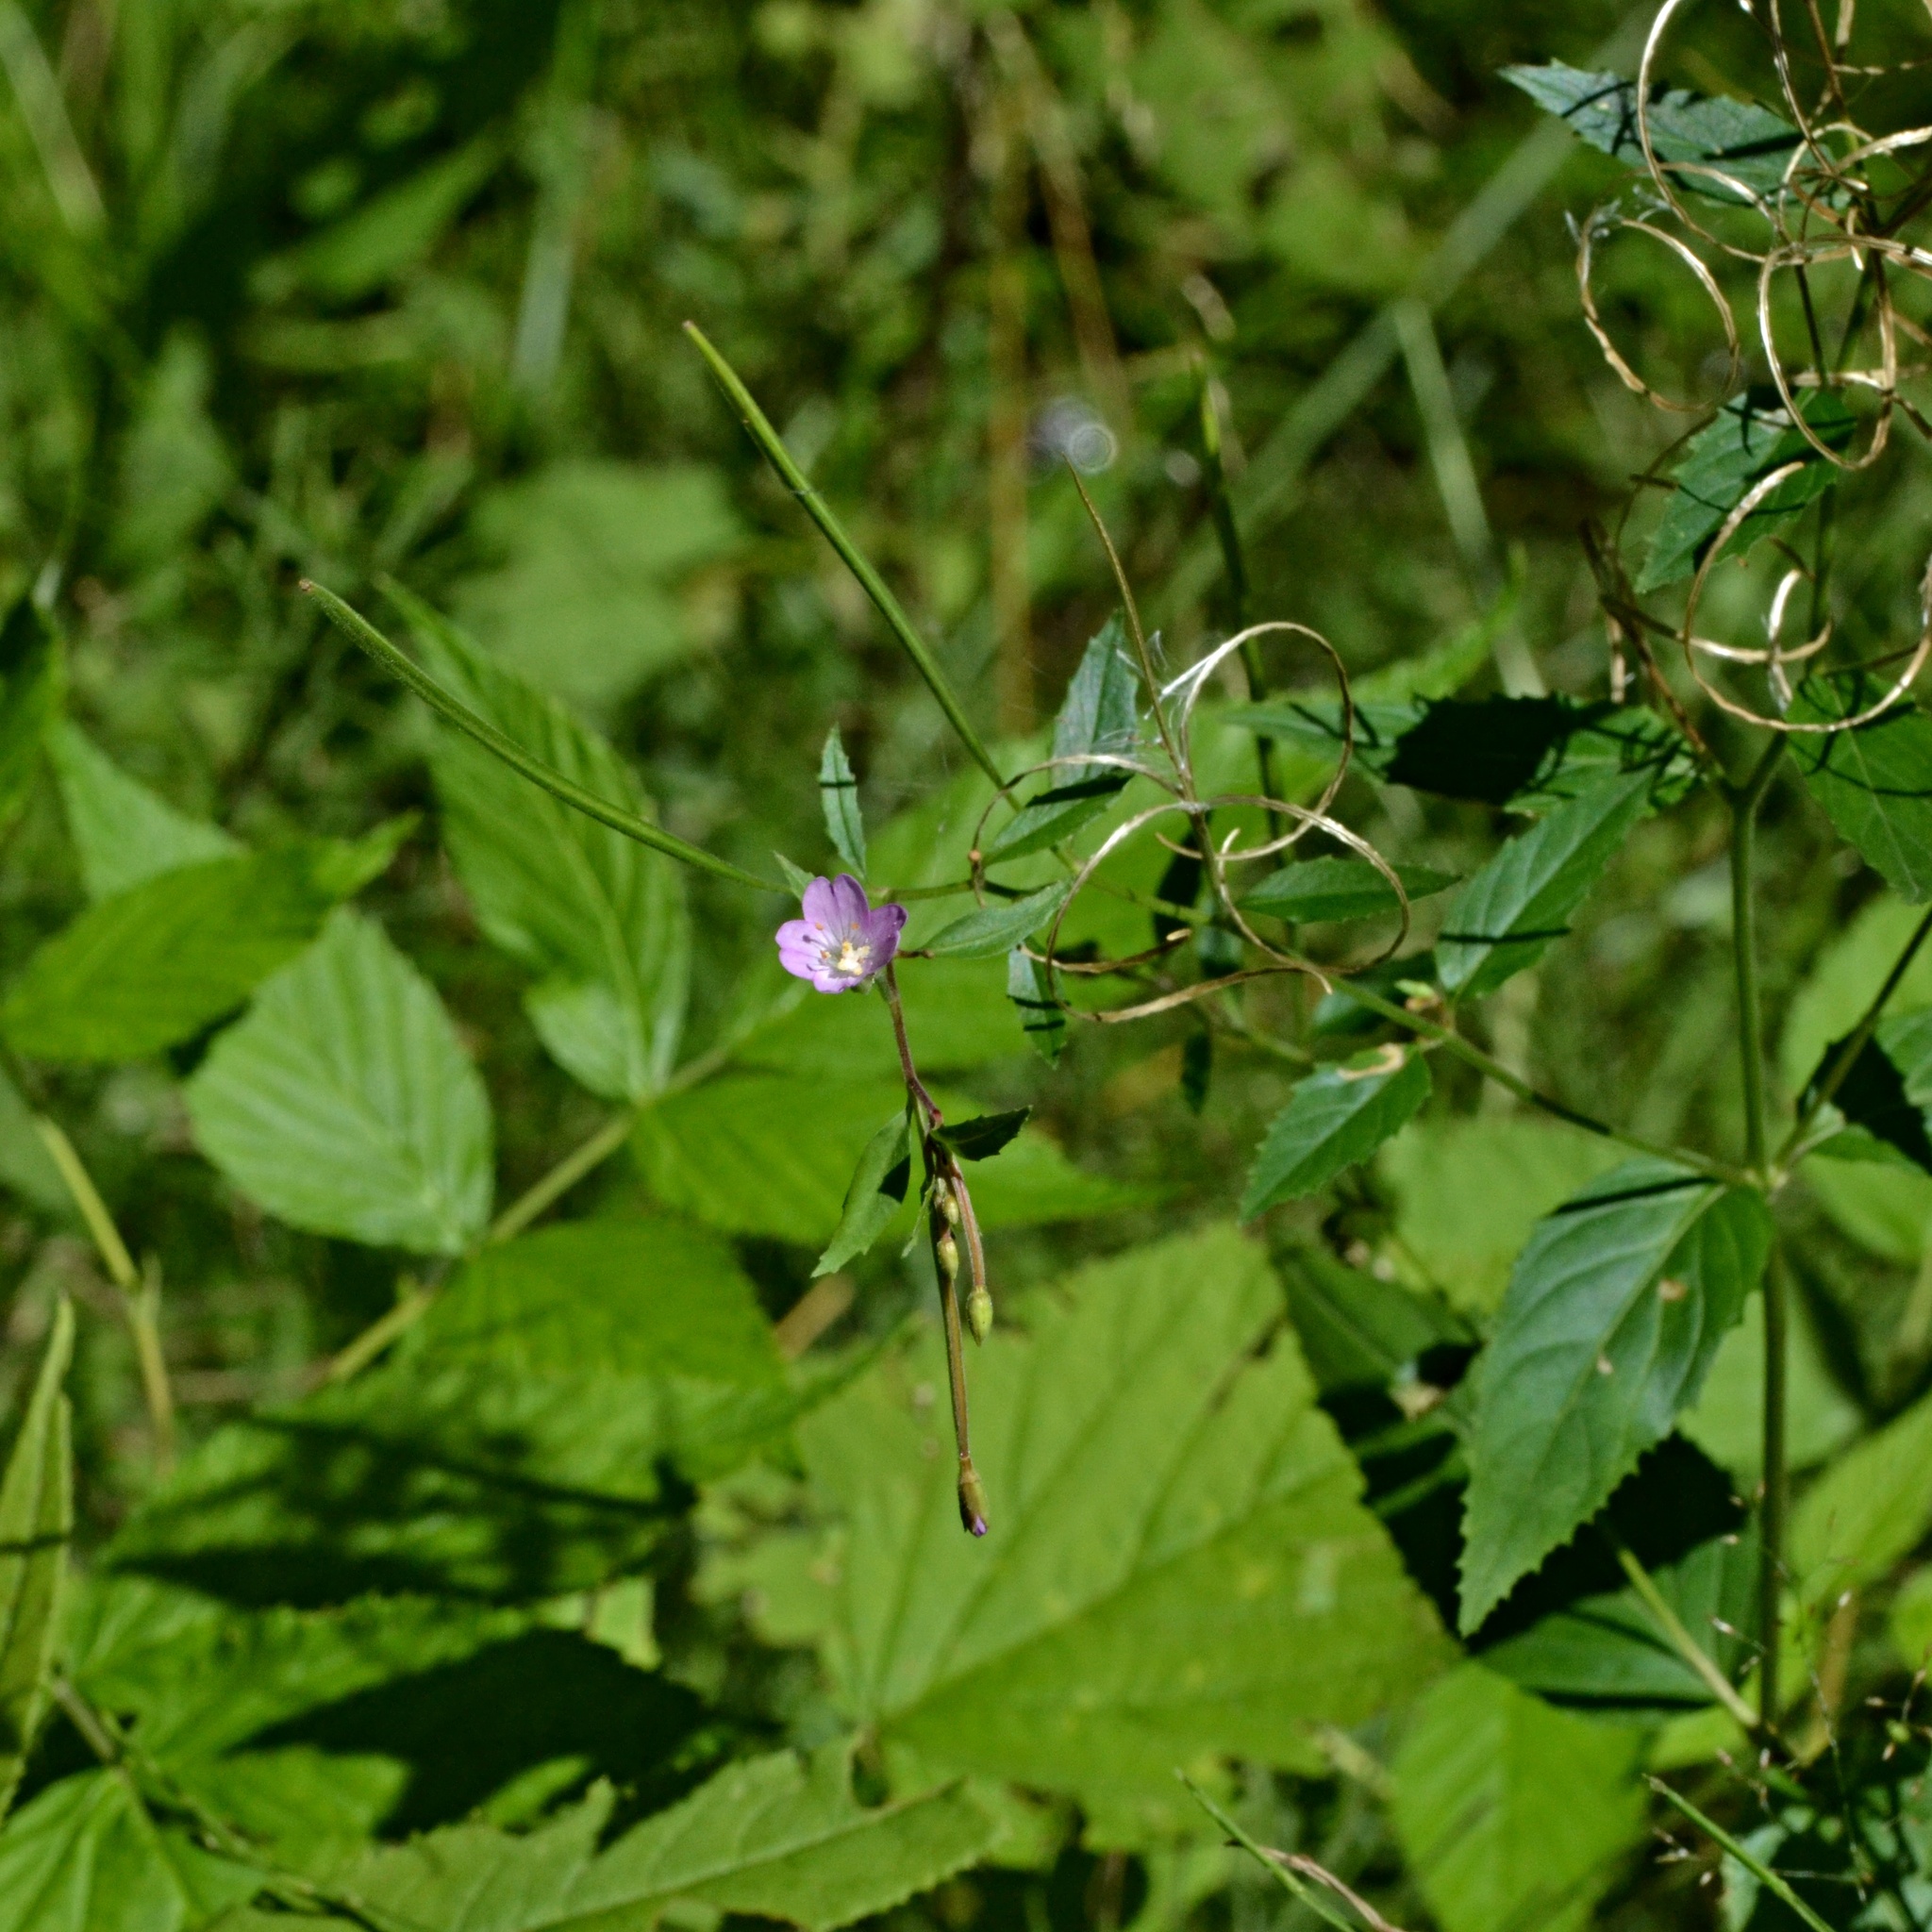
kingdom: Plantae
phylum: Tracheophyta
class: Magnoliopsida
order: Myrtales
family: Onagraceae
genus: Epilobium
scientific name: Epilobium montanum
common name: Broad-leaved willowherb
